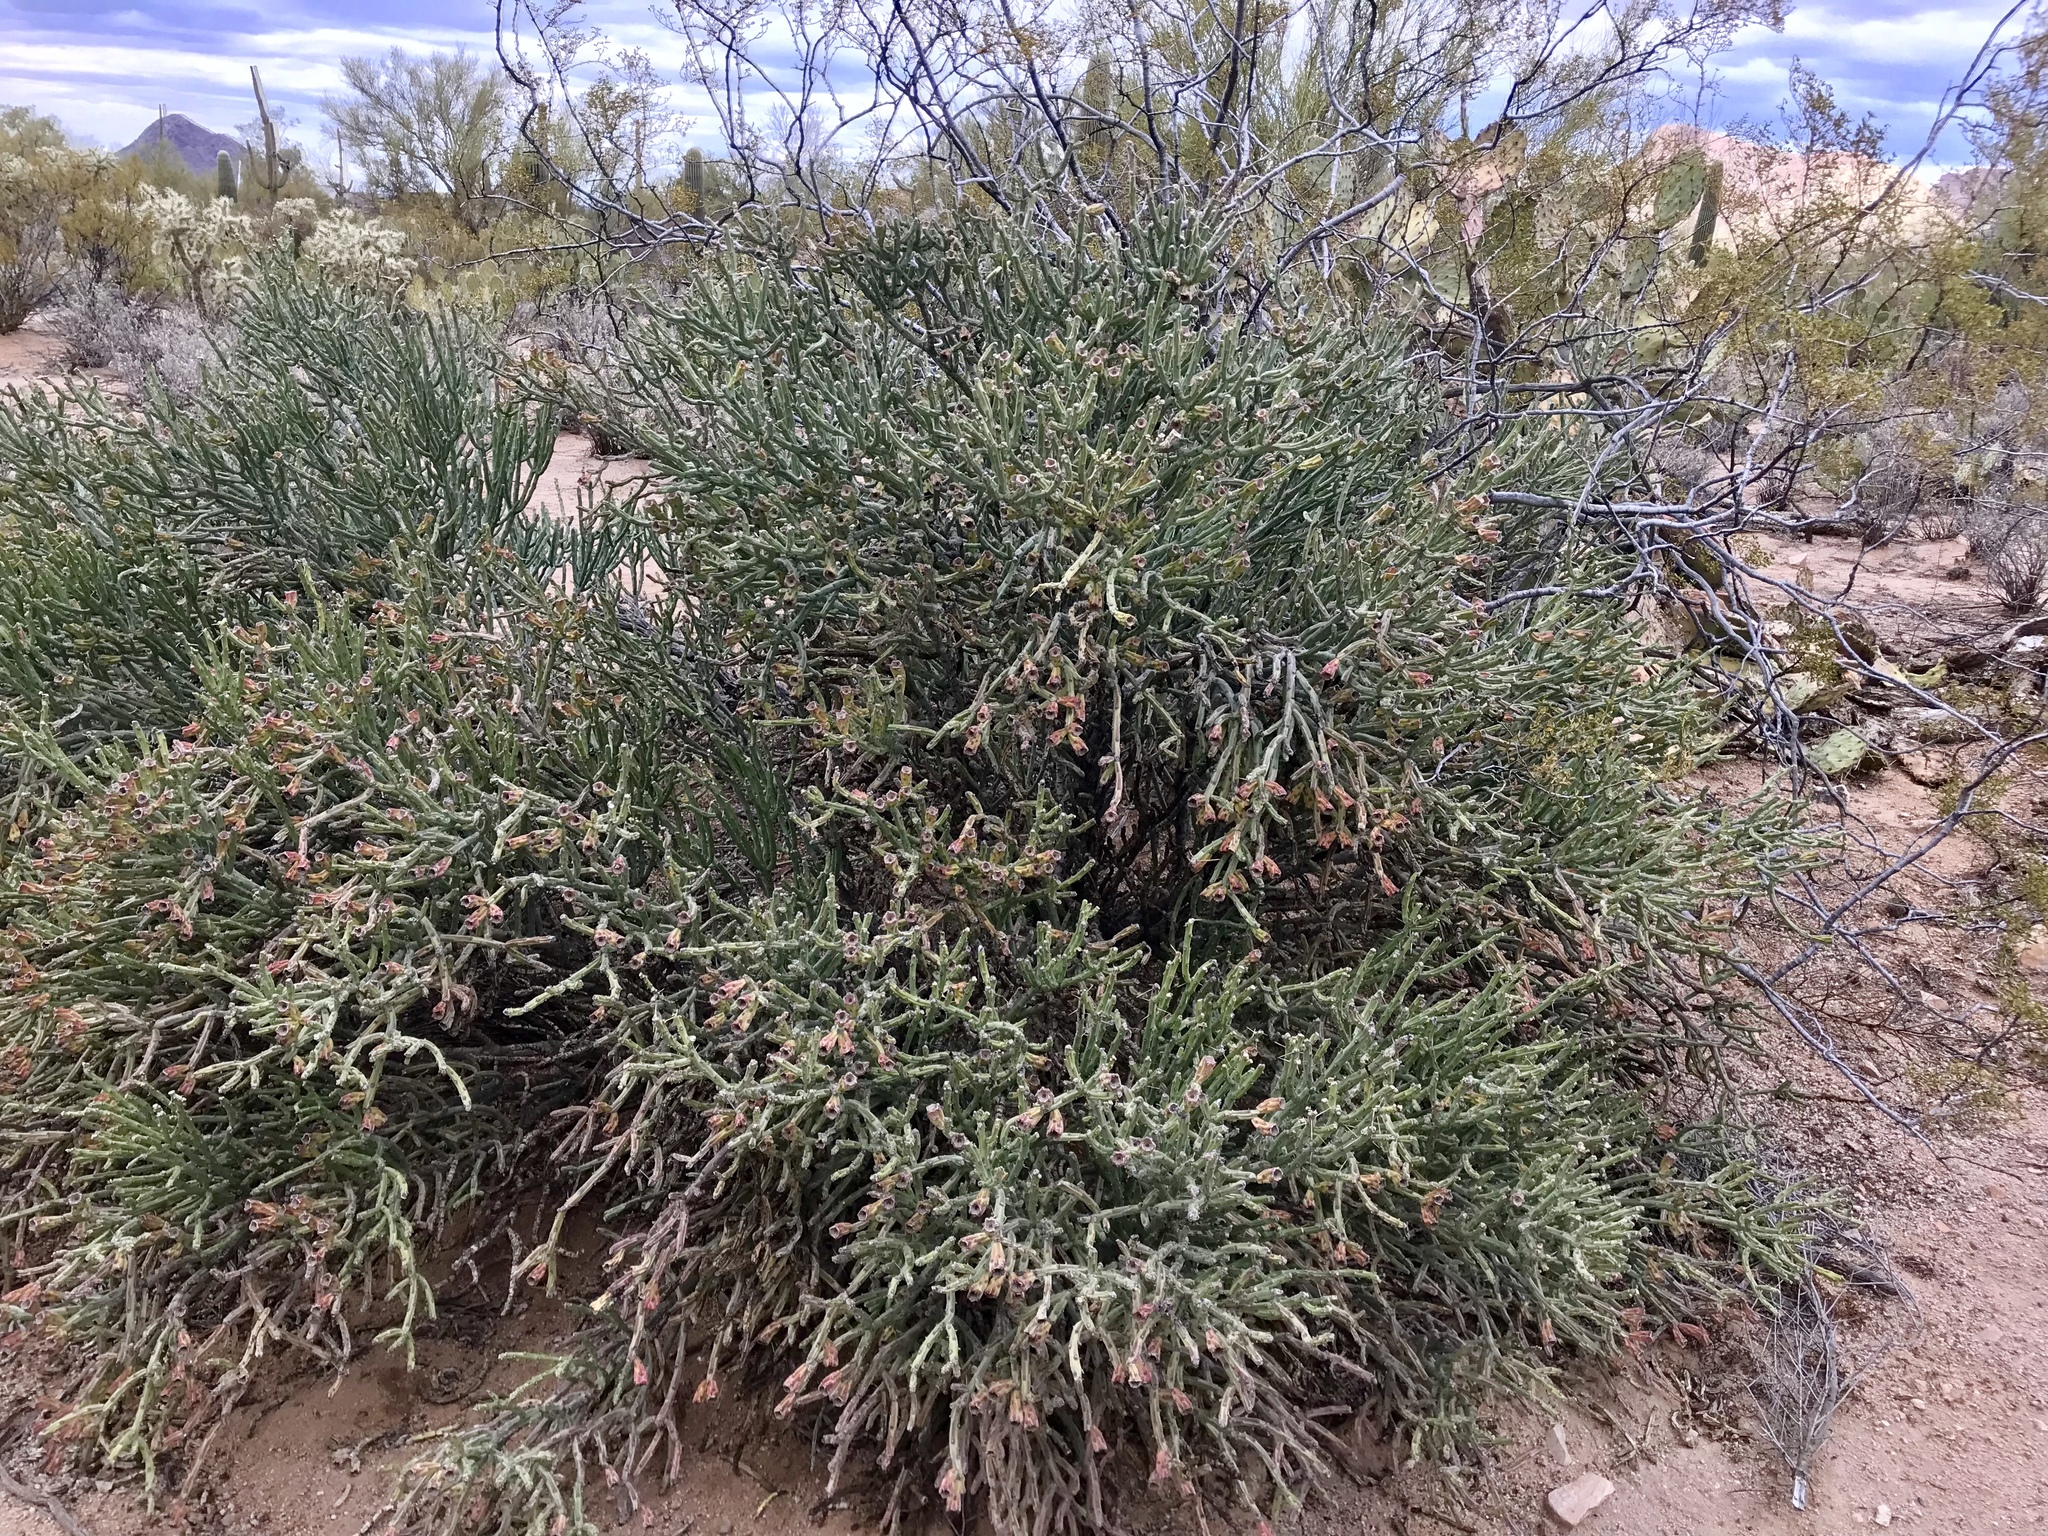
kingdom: Plantae
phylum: Tracheophyta
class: Magnoliopsida
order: Caryophyllales
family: Cactaceae
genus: Cylindropuntia
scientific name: Cylindropuntia arbuscula
